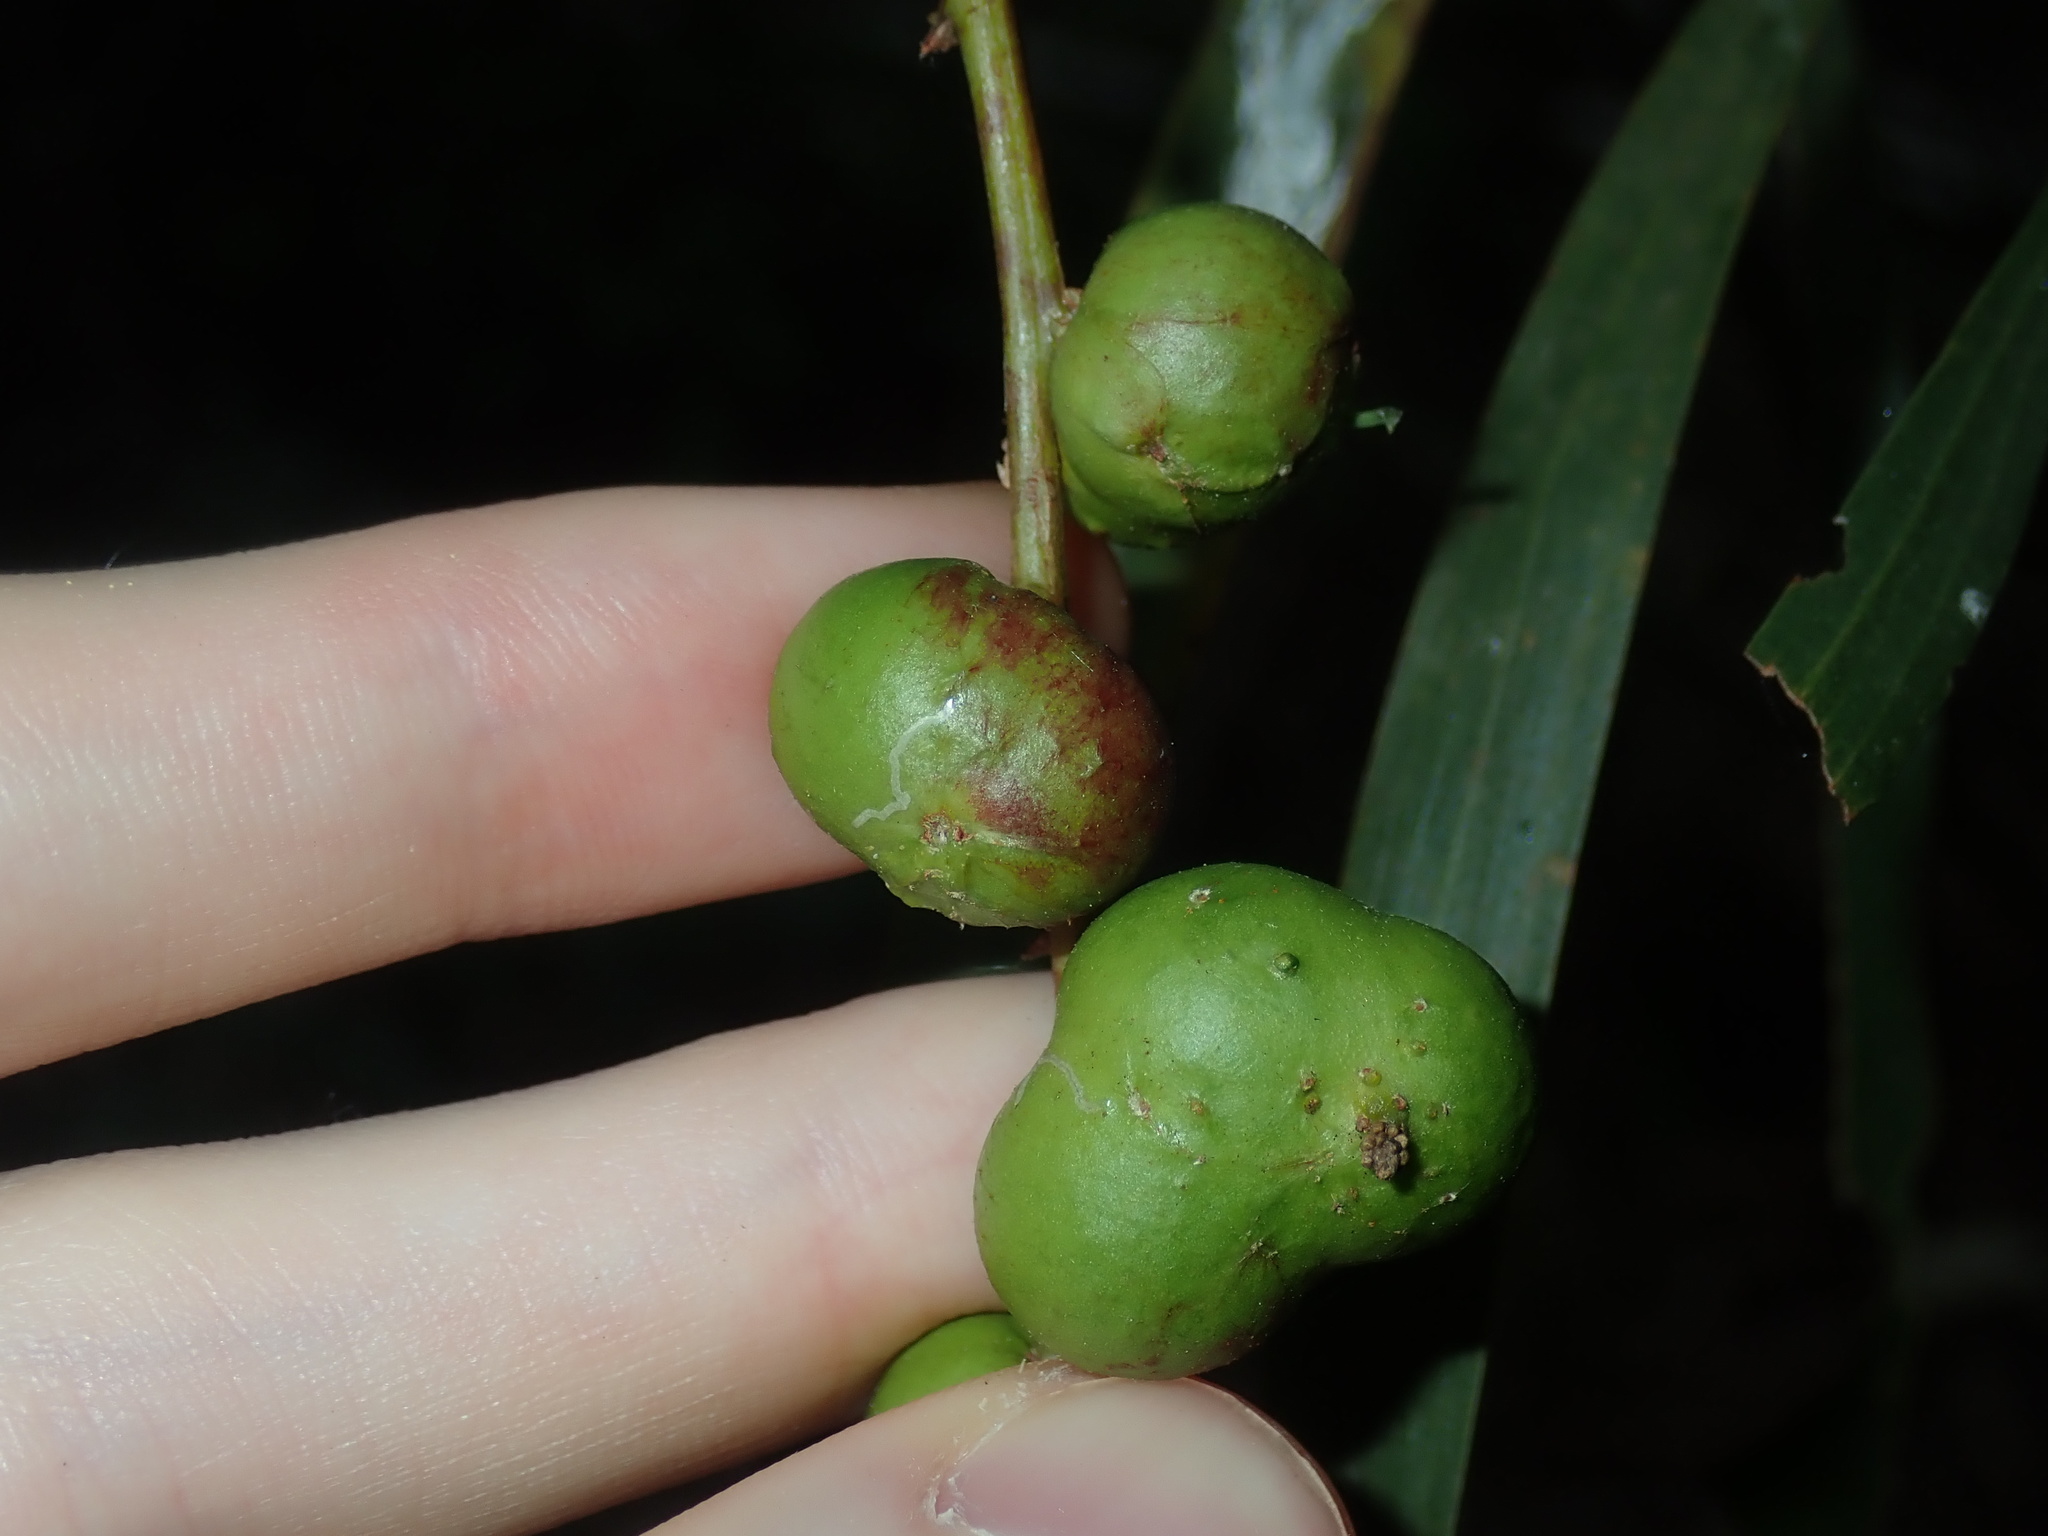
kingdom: Animalia
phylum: Arthropoda
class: Insecta
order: Hymenoptera
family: Pteromalidae
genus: Trichilogaster
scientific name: Trichilogaster acaciaelongifoliae
